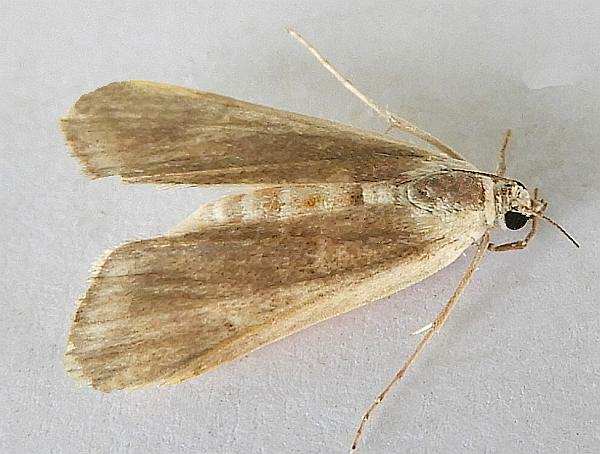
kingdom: Animalia
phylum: Arthropoda
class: Insecta
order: Lepidoptera
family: Crambidae
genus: Parapoynx
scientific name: Parapoynx maculalis
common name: Polymorphic pondweed moth
